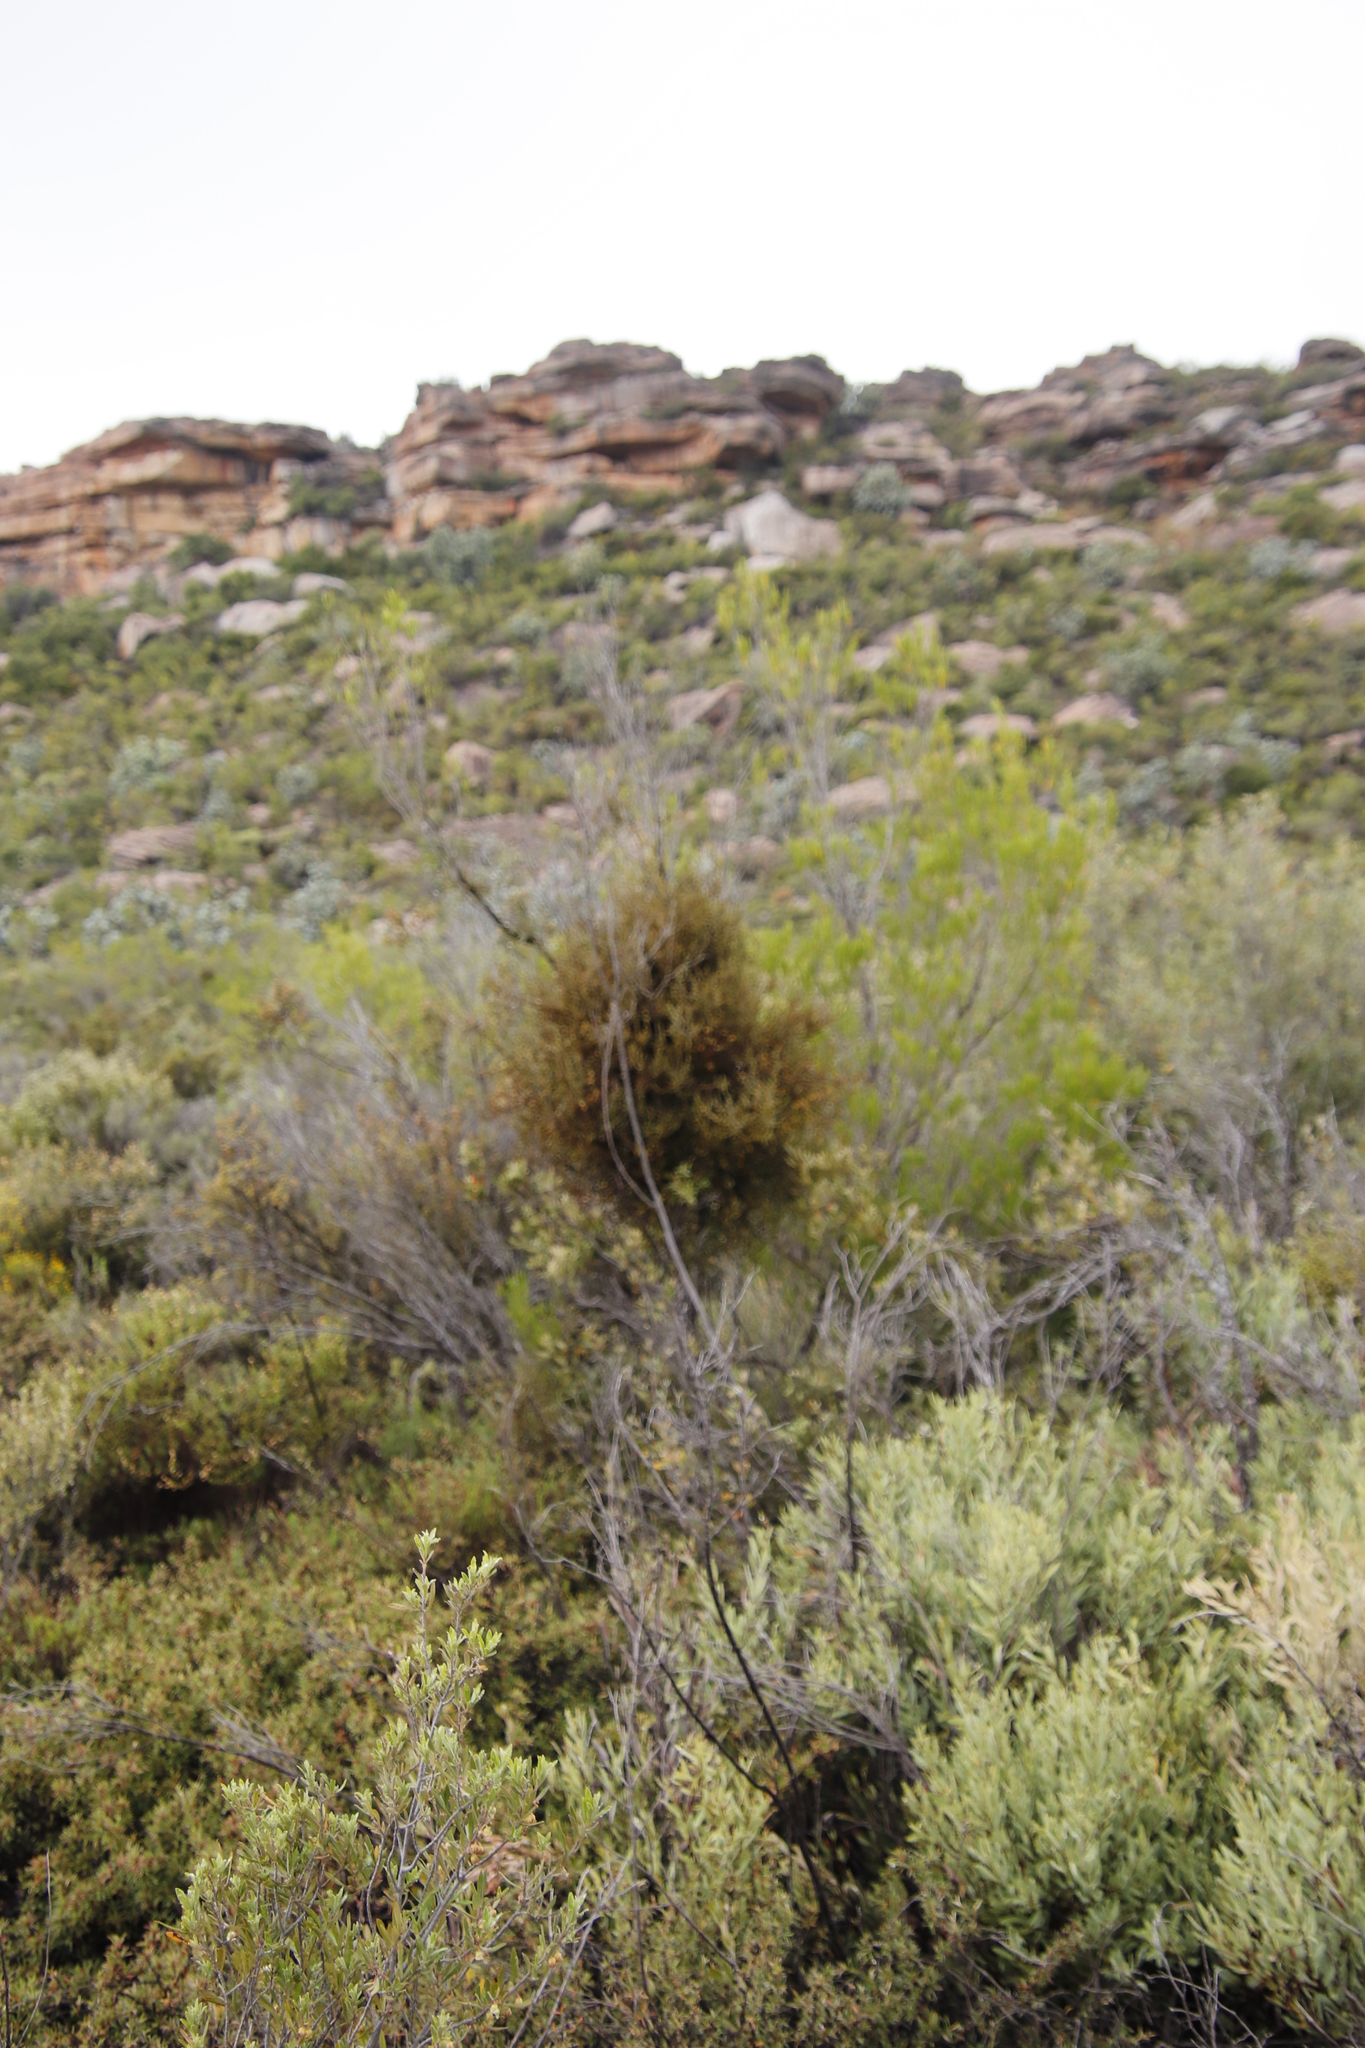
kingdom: Plantae
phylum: Tracheophyta
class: Magnoliopsida
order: Santalales
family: Viscaceae
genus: Viscum
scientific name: Viscum capense
